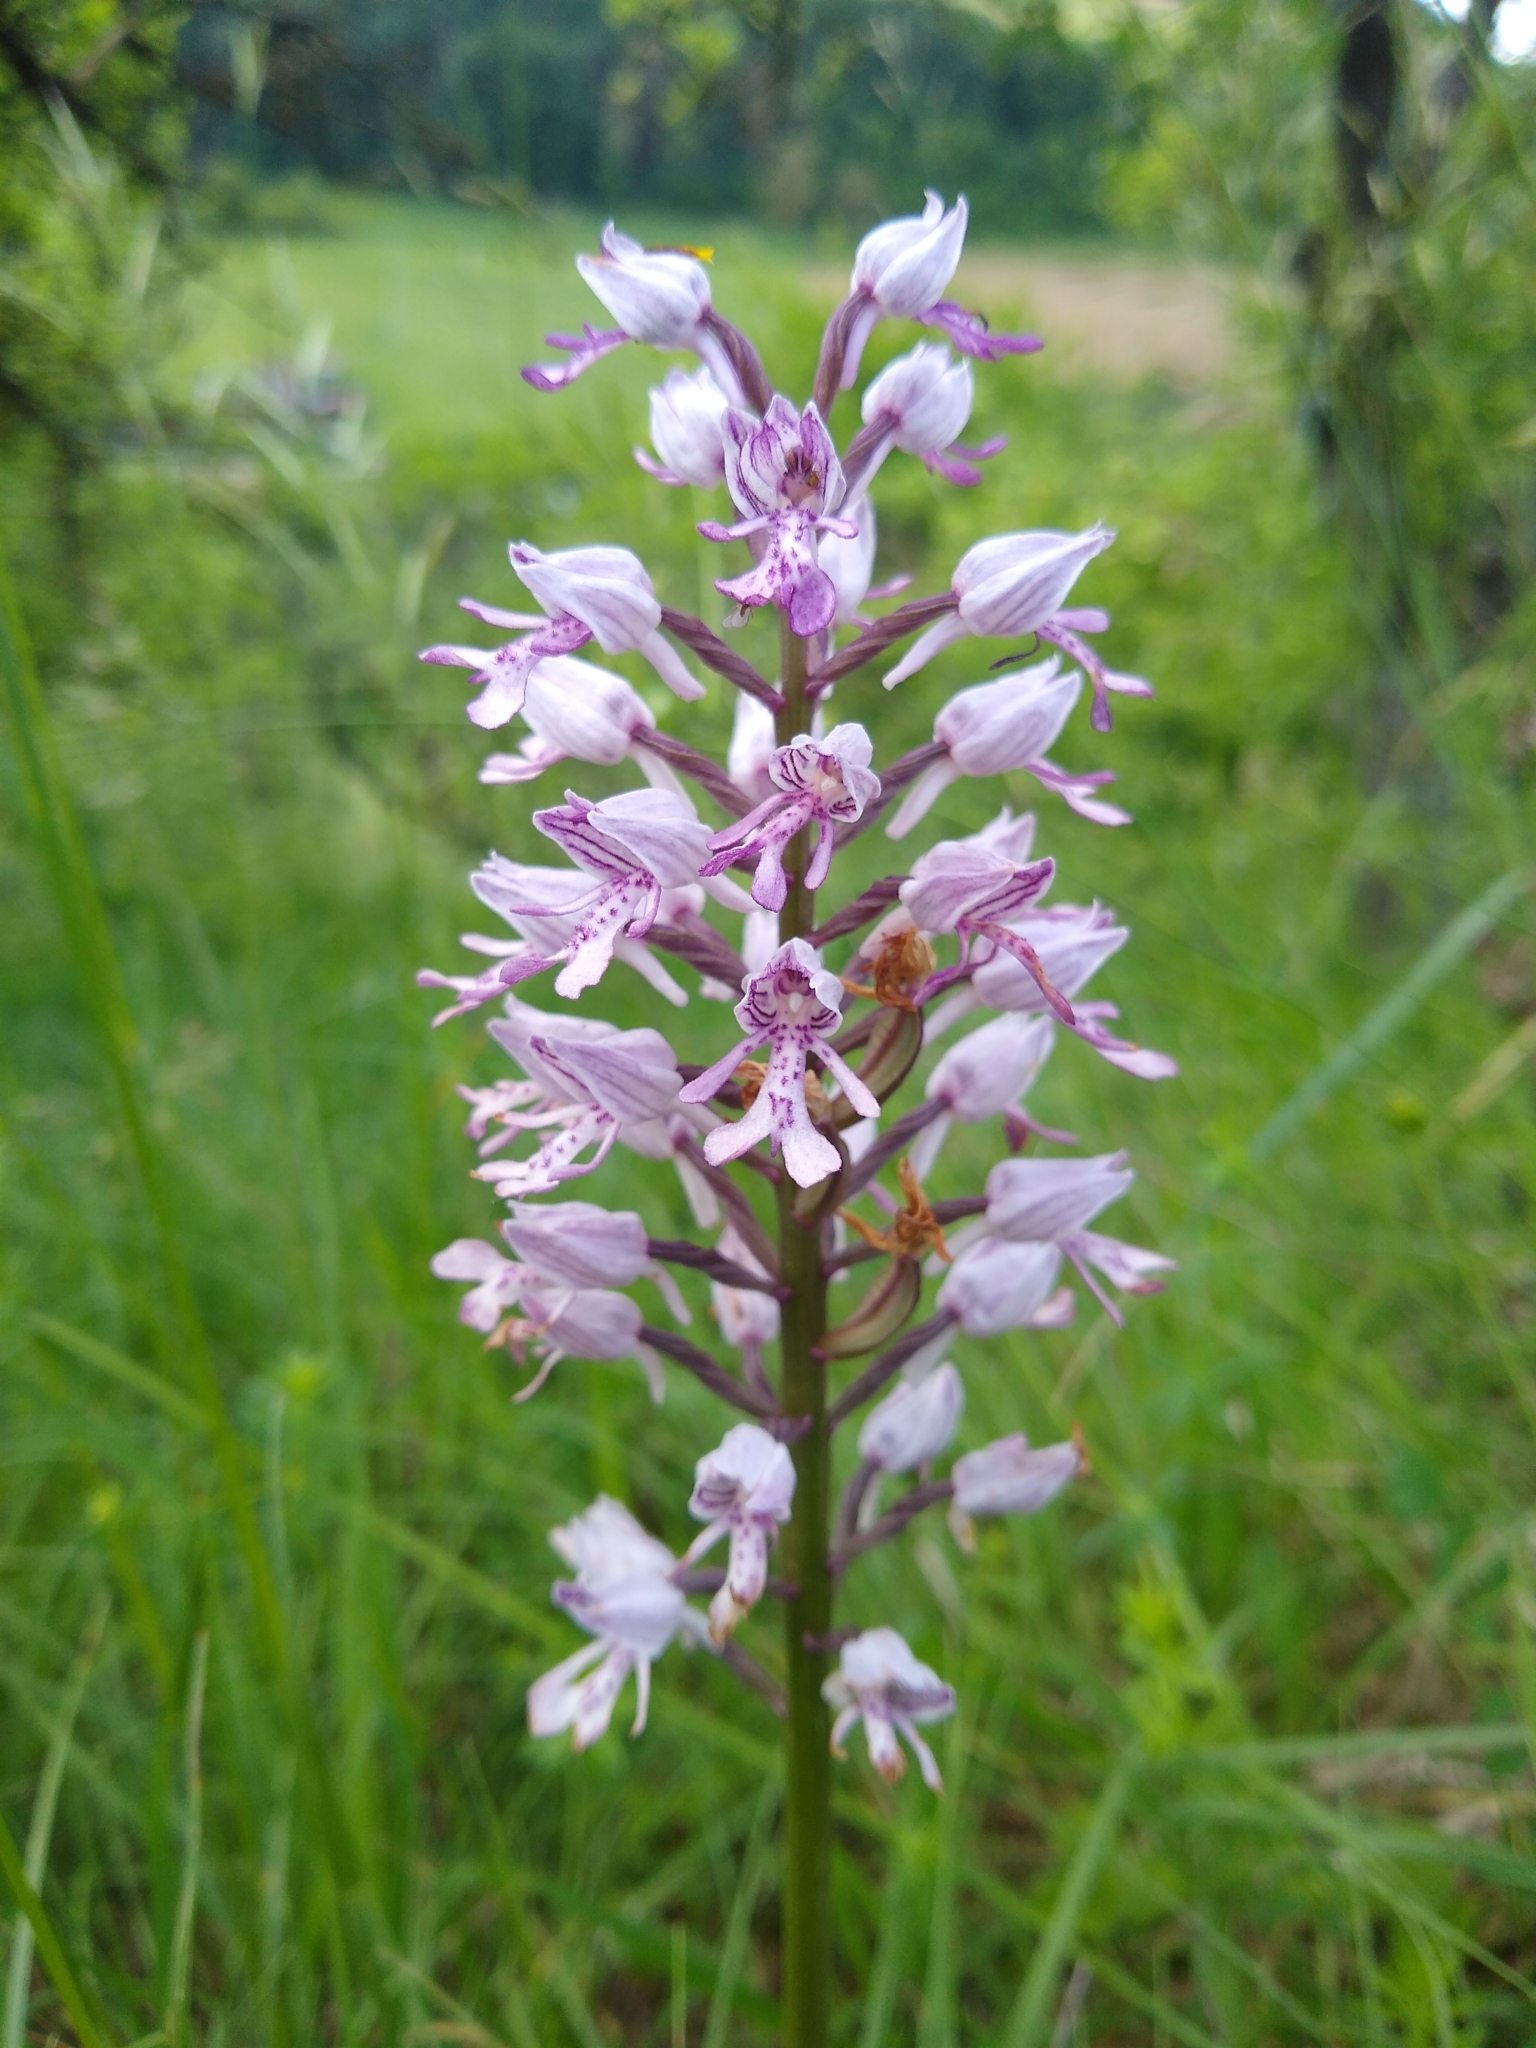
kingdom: Plantae
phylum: Tracheophyta
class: Liliopsida
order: Asparagales
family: Orchidaceae
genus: Orchis
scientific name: Orchis militaris
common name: Military orchid
